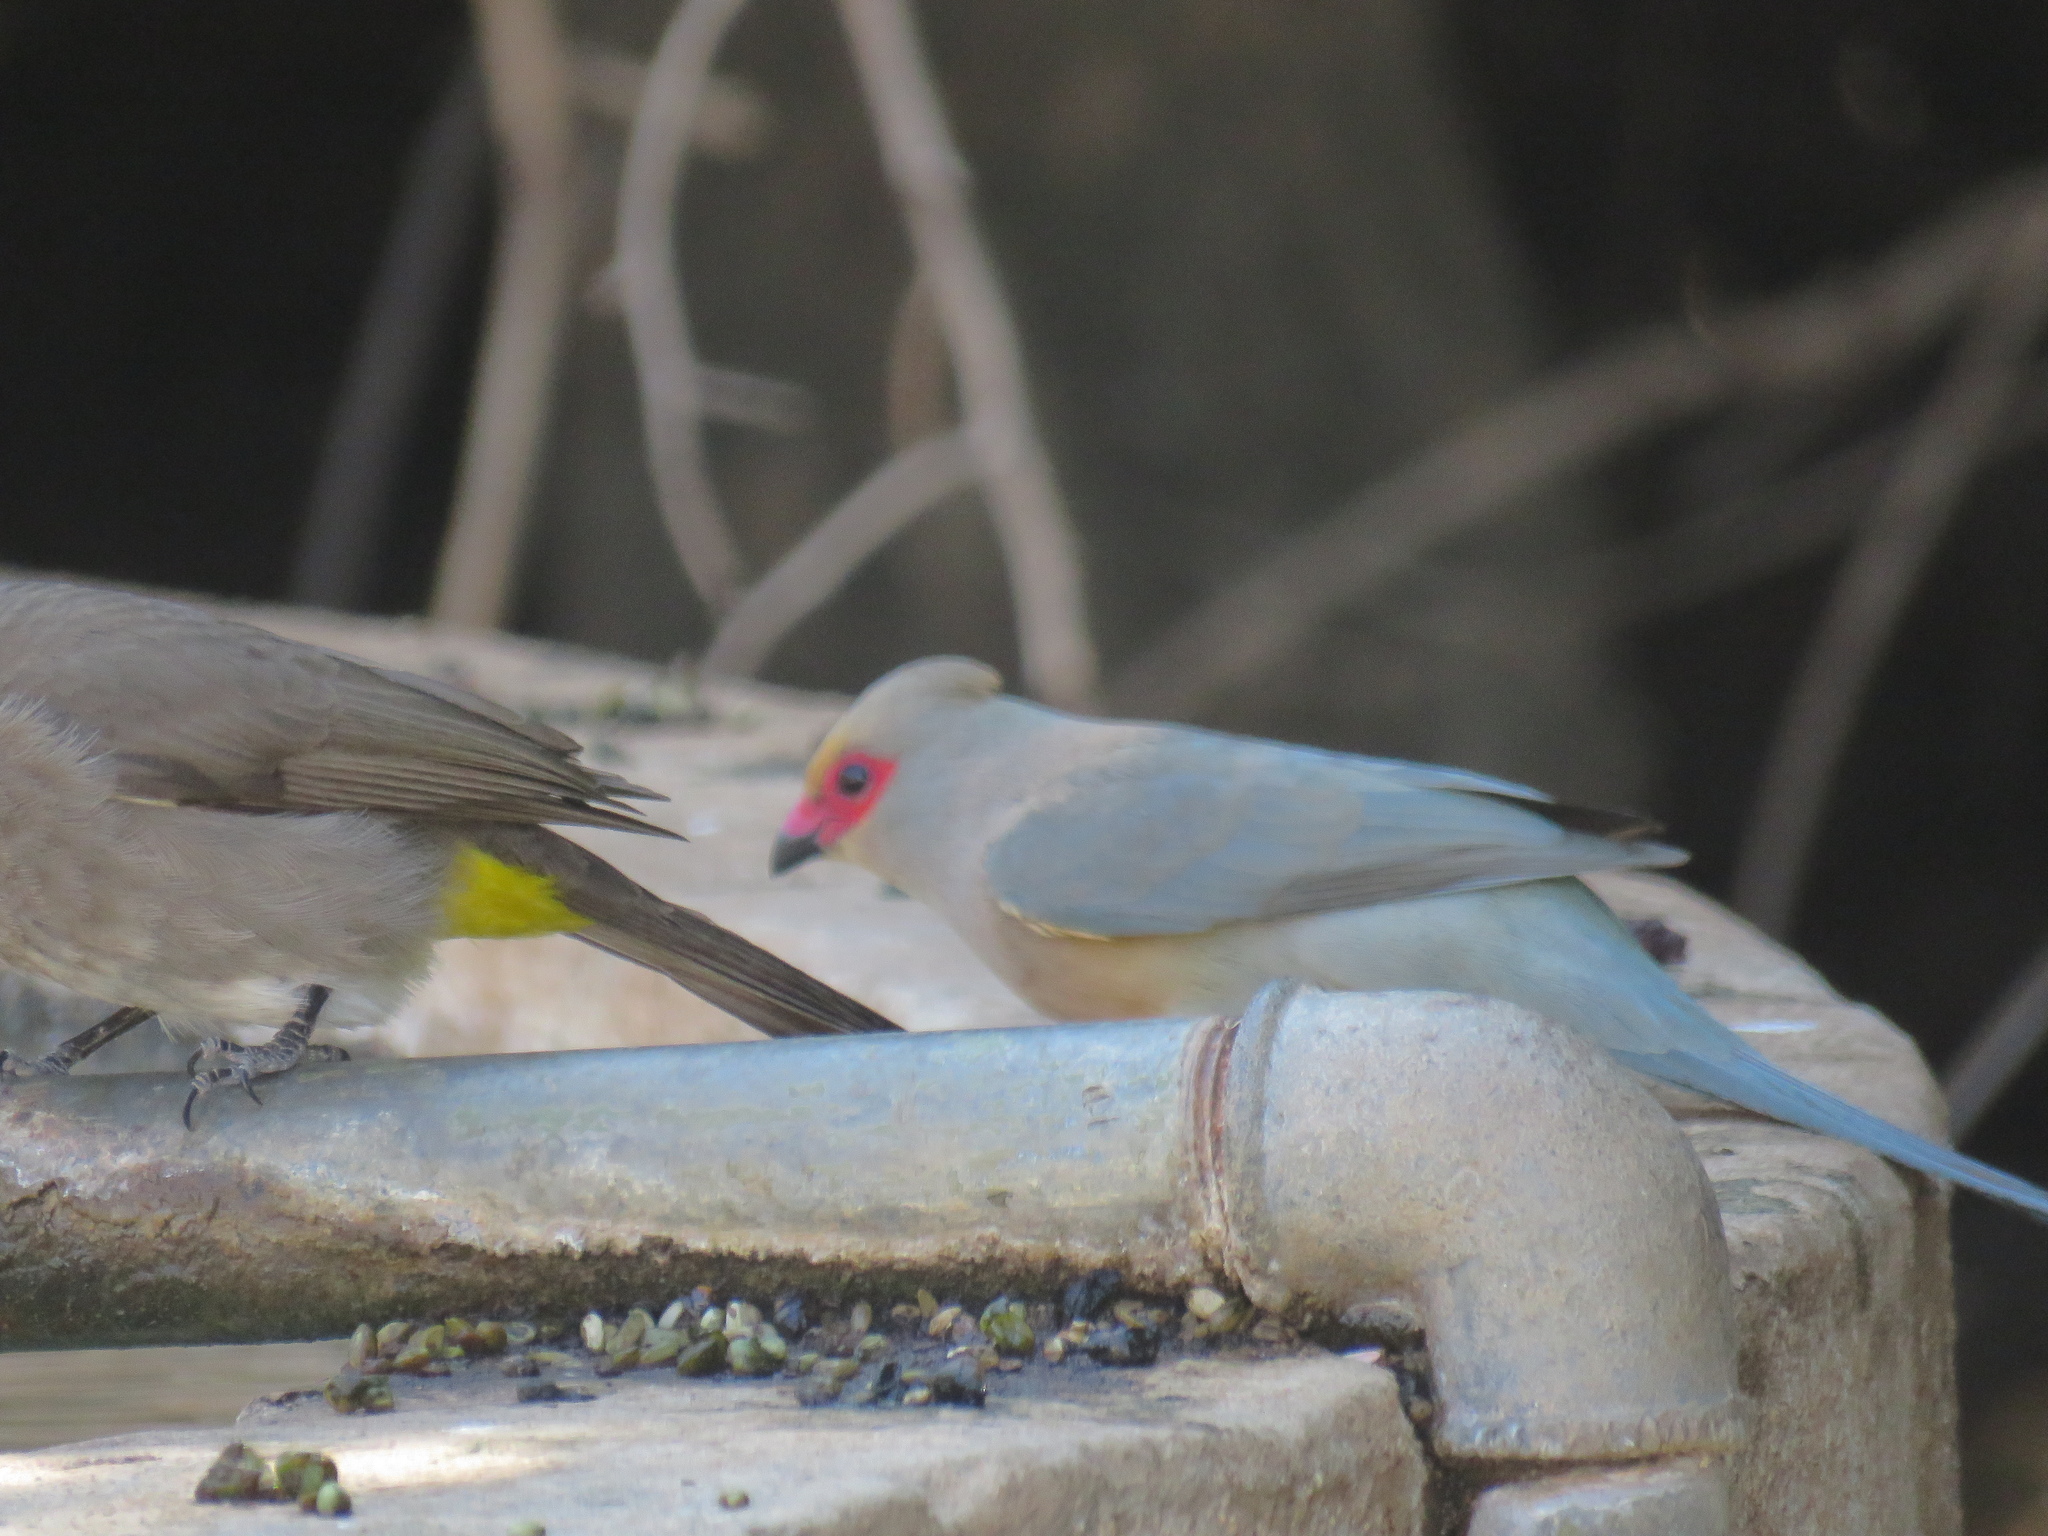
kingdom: Animalia
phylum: Chordata
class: Aves
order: Coliiformes
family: Coliidae
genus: Urocolius
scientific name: Urocolius indicus
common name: Red-faced mousebird
